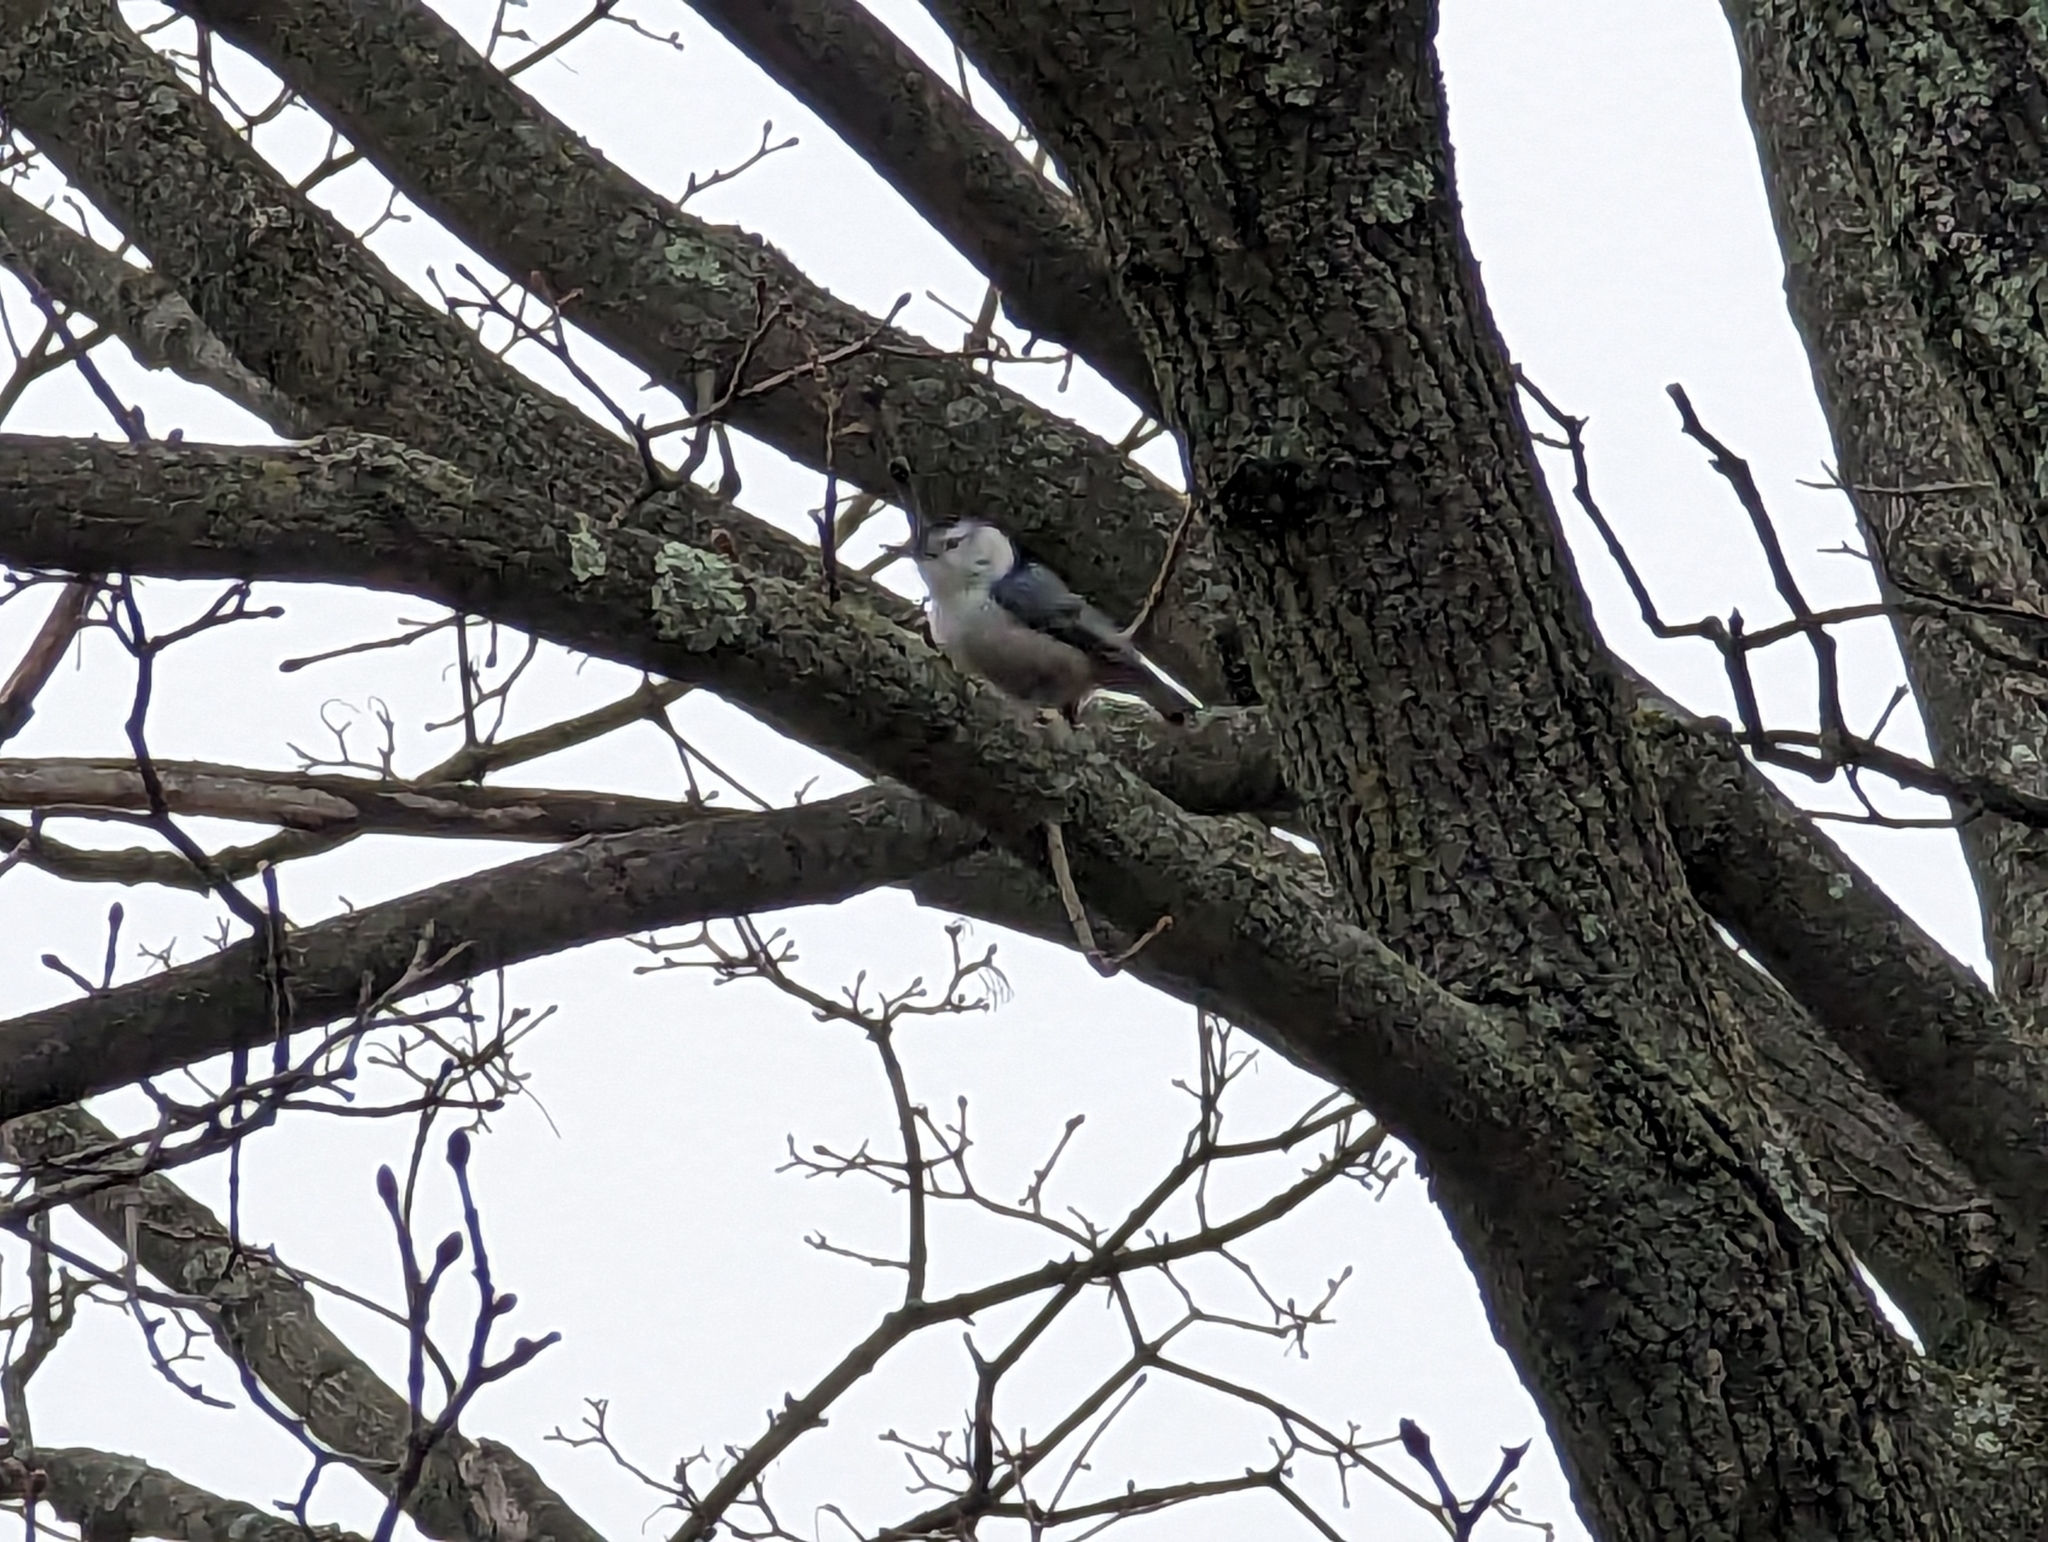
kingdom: Animalia
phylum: Chordata
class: Aves
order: Passeriformes
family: Sittidae
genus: Sitta
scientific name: Sitta carolinensis
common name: White-breasted nuthatch
